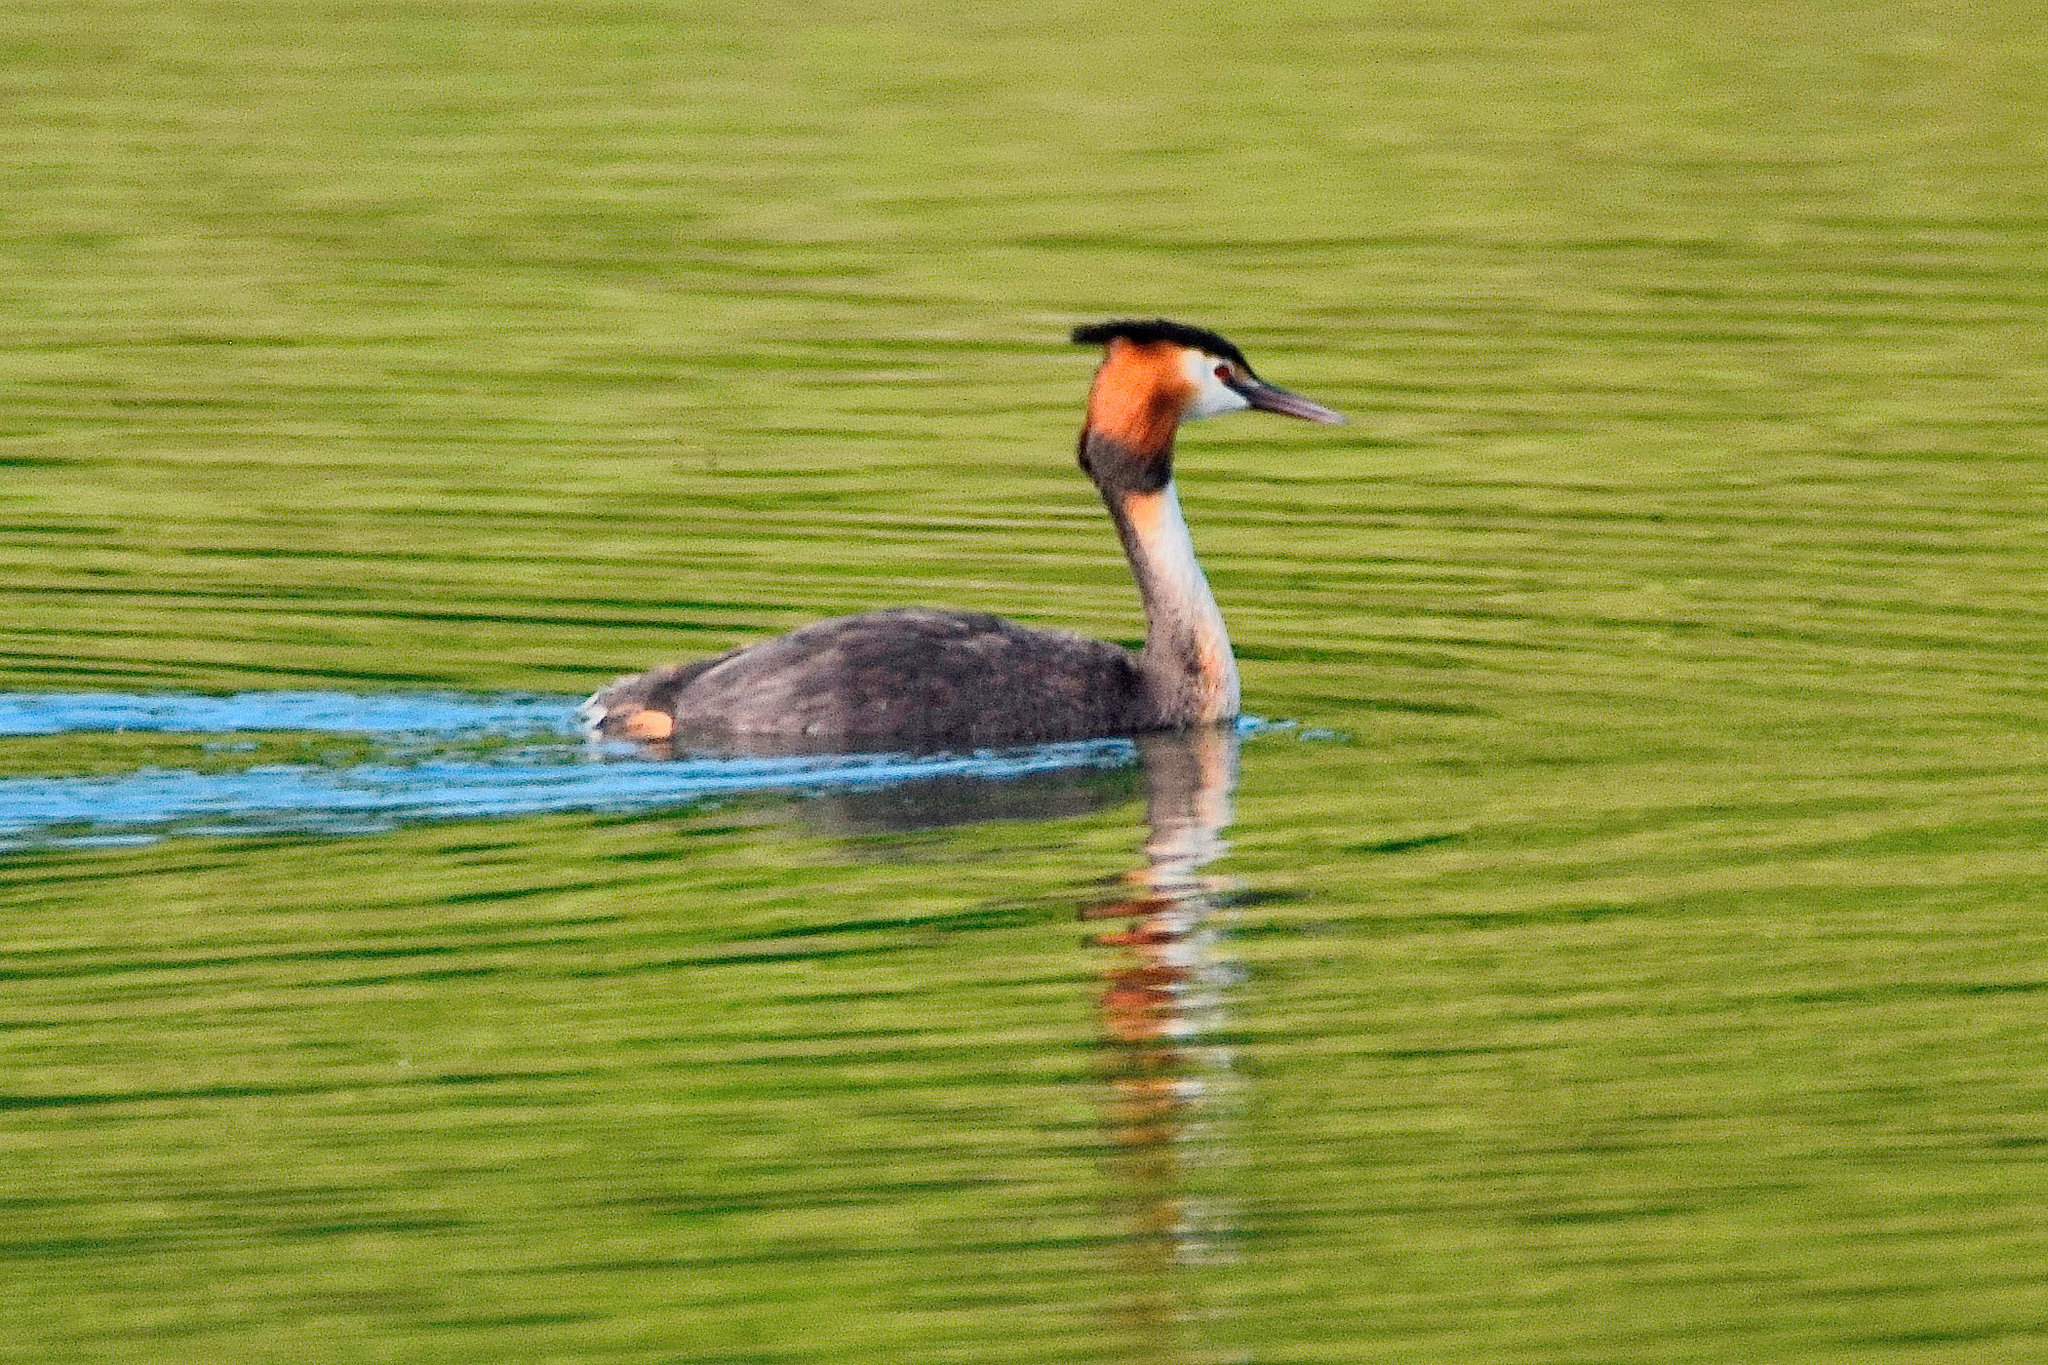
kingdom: Animalia
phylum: Chordata
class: Aves
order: Podicipediformes
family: Podicipedidae
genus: Podiceps
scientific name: Podiceps cristatus
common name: Great crested grebe
